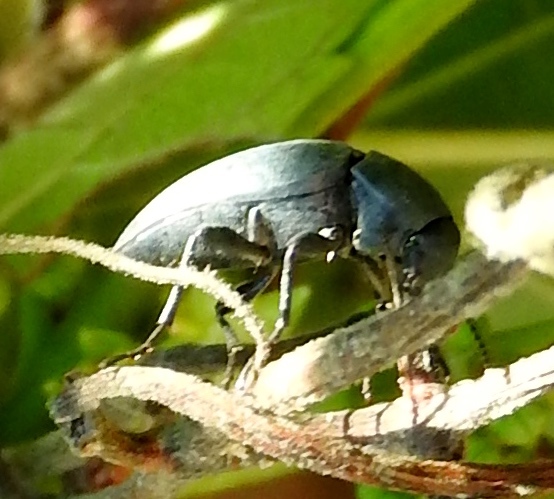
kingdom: Animalia
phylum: Arthropoda
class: Insecta
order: Coleoptera
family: Tenebrionidae
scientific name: Tenebrionidae
